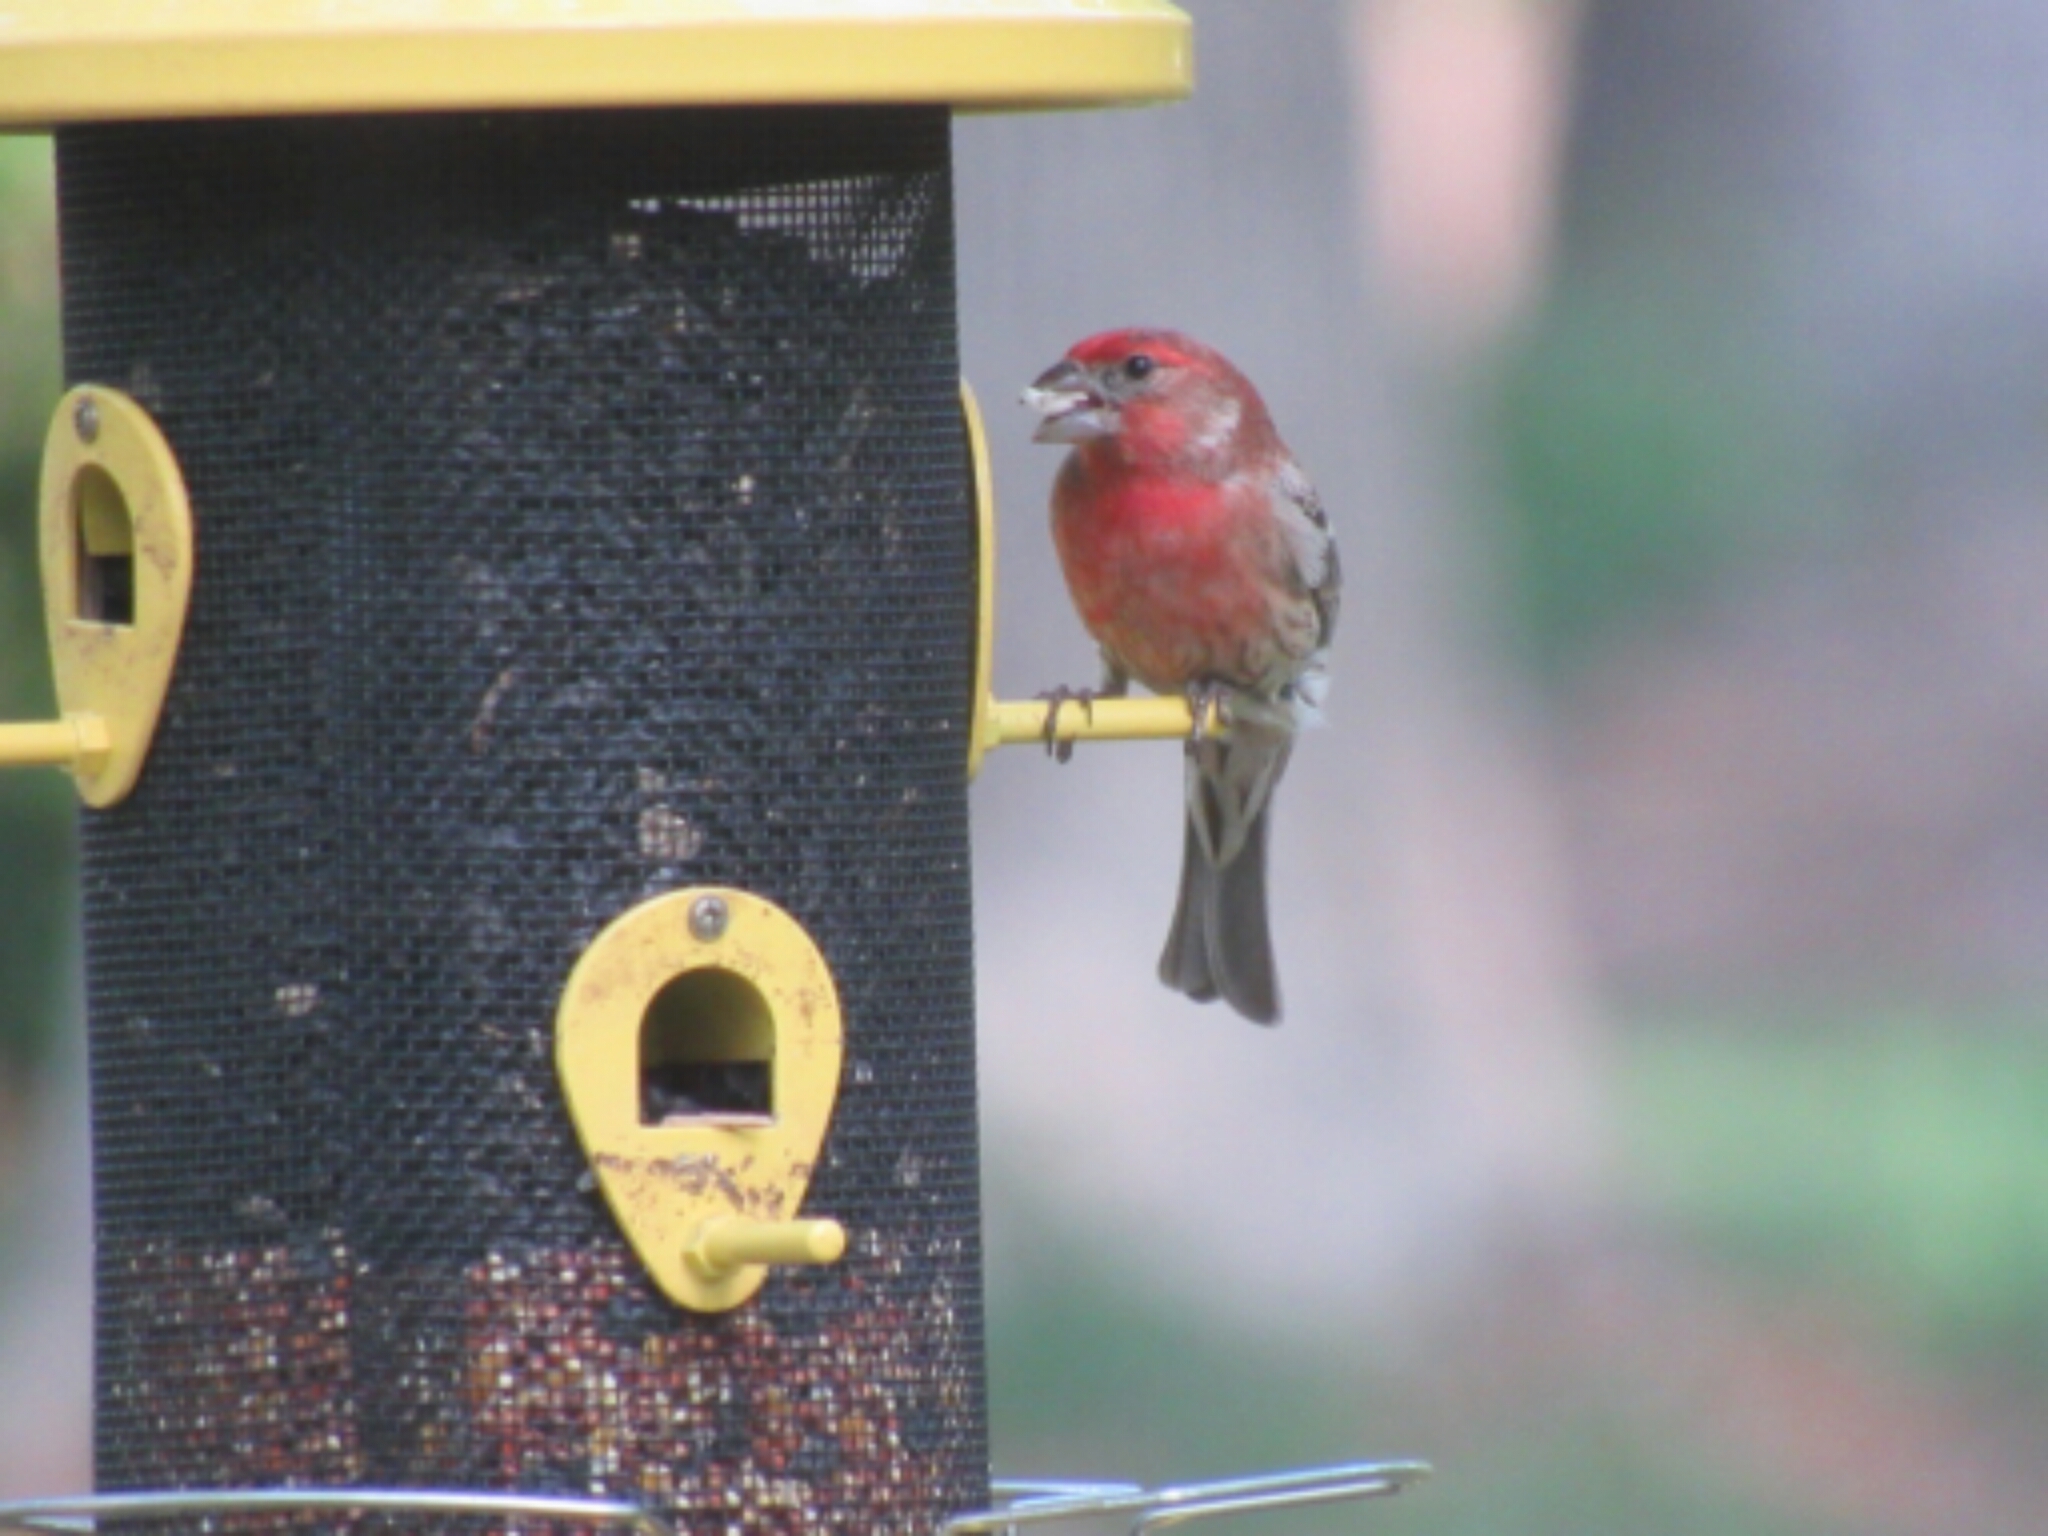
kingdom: Animalia
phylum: Chordata
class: Aves
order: Passeriformes
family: Fringillidae
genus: Haemorhous
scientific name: Haemorhous mexicanus
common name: House finch
